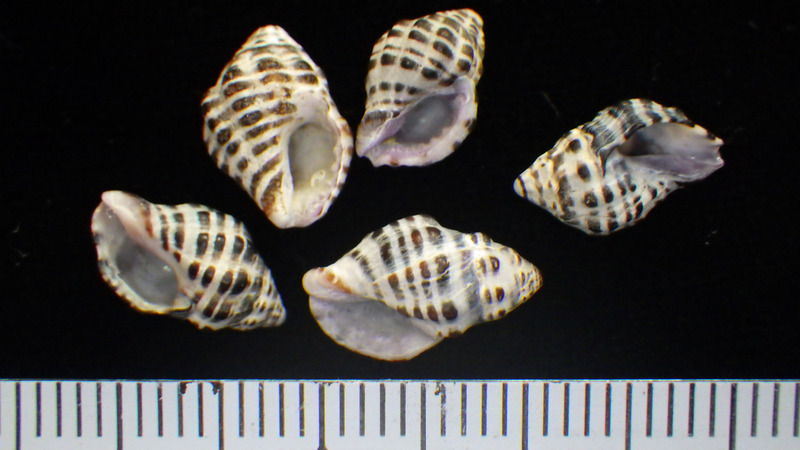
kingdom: Animalia
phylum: Mollusca
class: Gastropoda
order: Neogastropoda
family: Muricidae
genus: Morula
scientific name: Morula iostoma
